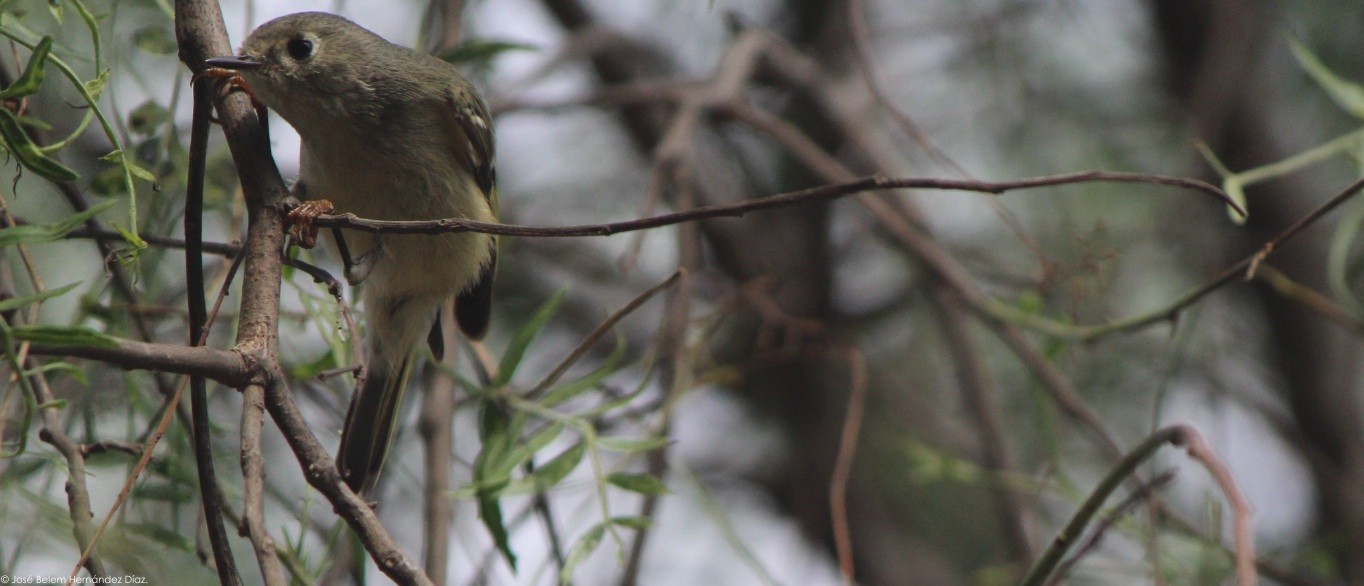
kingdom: Animalia
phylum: Chordata
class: Aves
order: Passeriformes
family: Regulidae
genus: Regulus
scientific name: Regulus calendula
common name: Ruby-crowned kinglet
